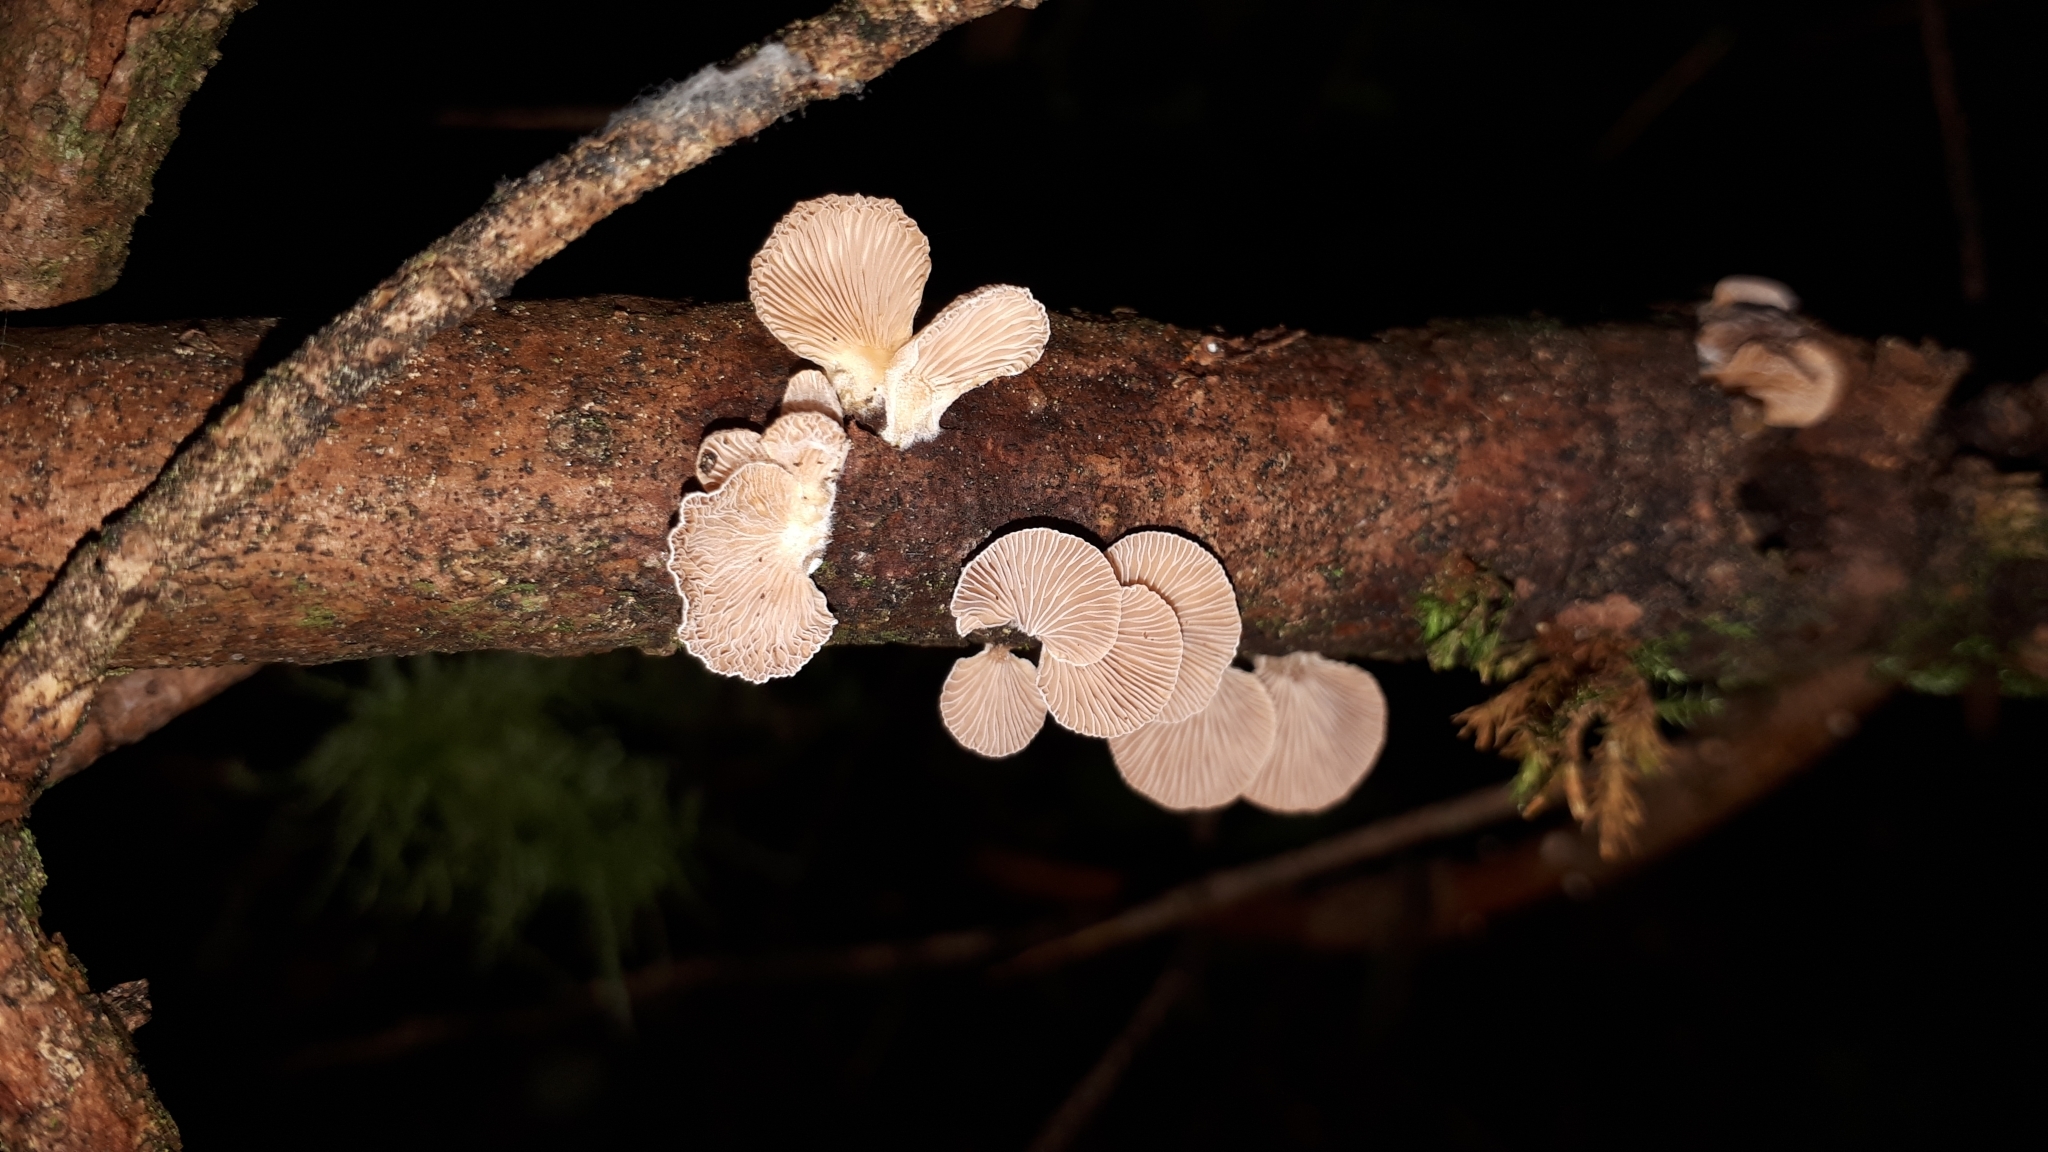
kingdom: Fungi
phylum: Basidiomycota
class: Agaricomycetes
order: Agaricales
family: Mycenaceae
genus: Panellus
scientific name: Panellus mitis
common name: Elastic oysterling
